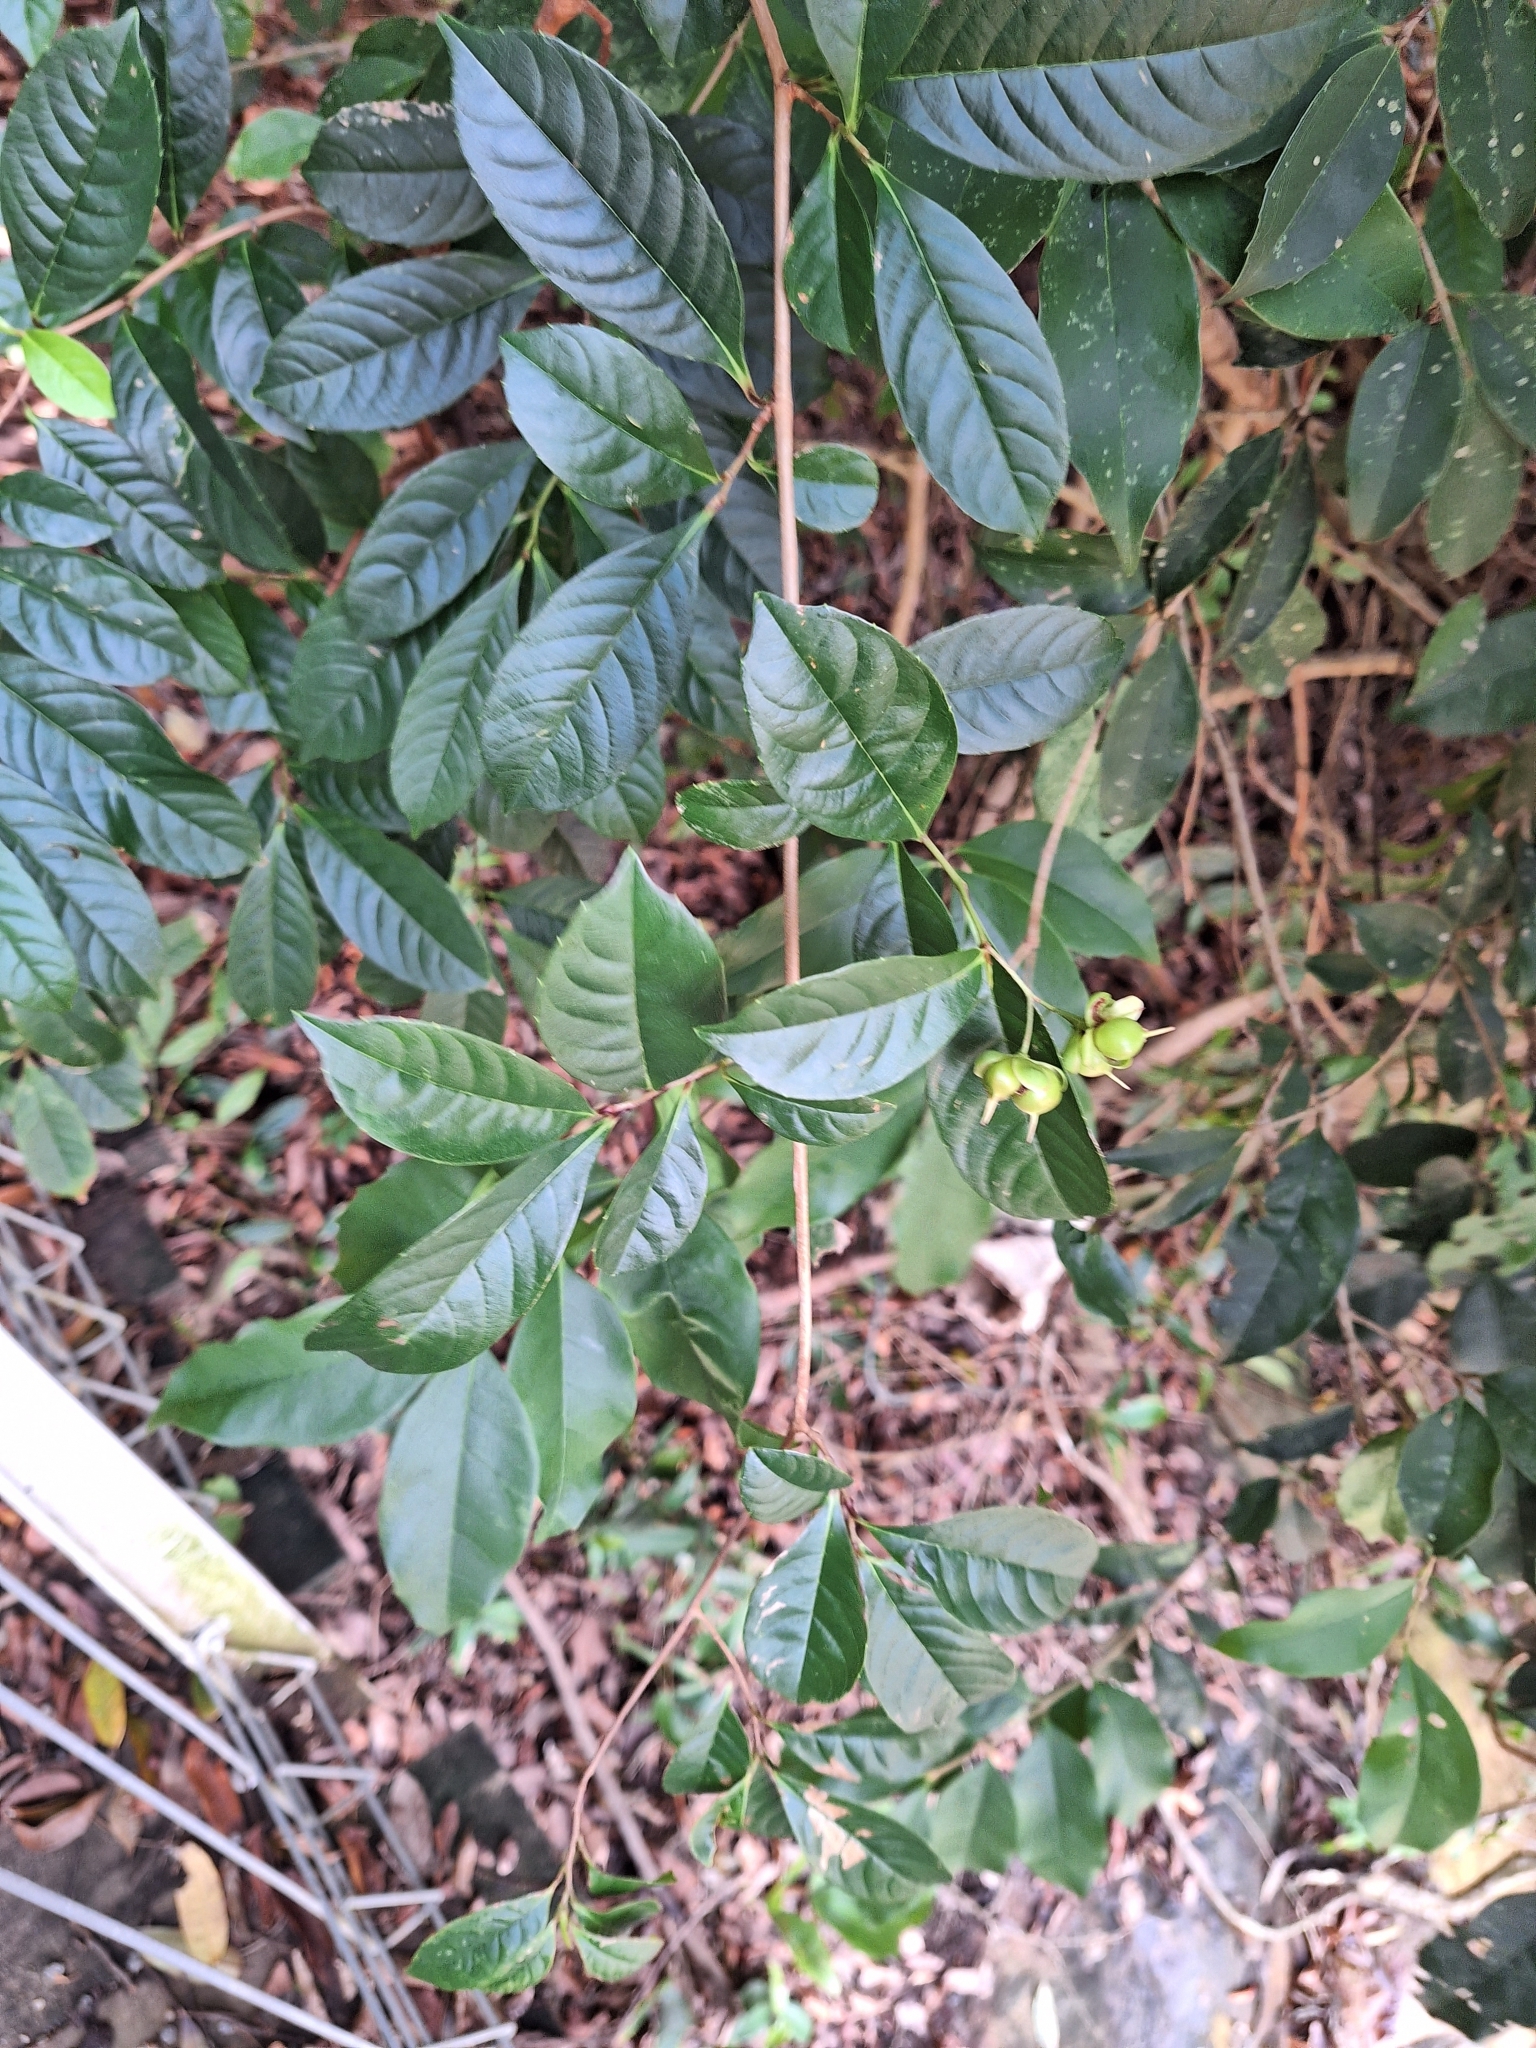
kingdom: Plantae
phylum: Tracheophyta
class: Magnoliopsida
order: Dilleniales
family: Dilleniaceae
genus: Tetracera
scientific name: Tetracera indica
